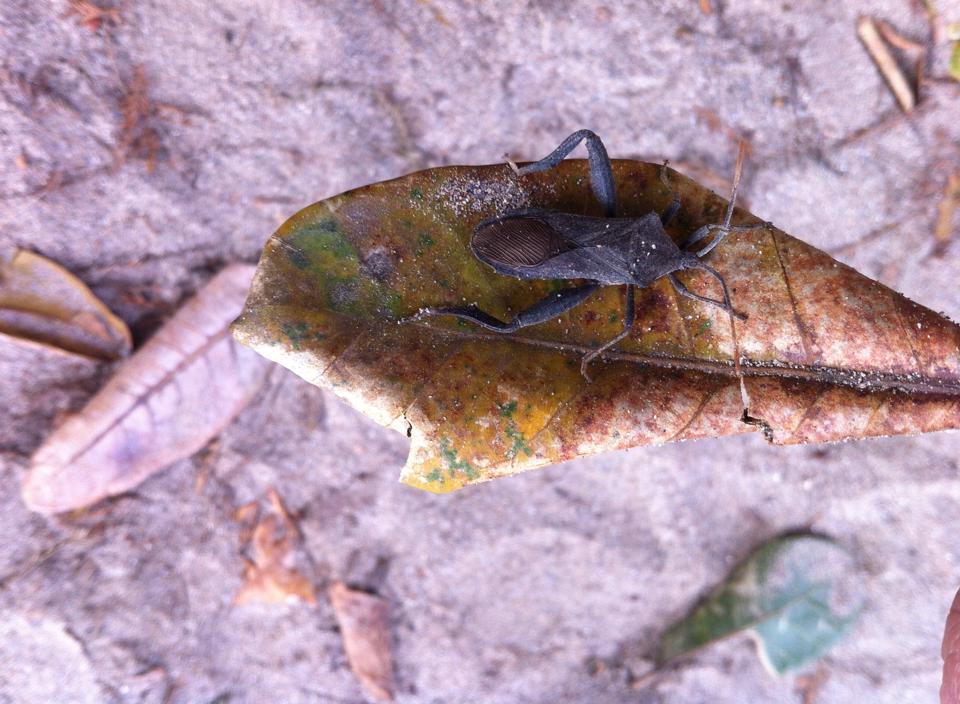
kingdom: Animalia
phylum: Arthropoda
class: Insecta
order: Hemiptera
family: Coreidae
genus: Piezogaster
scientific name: Piezogaster vates
